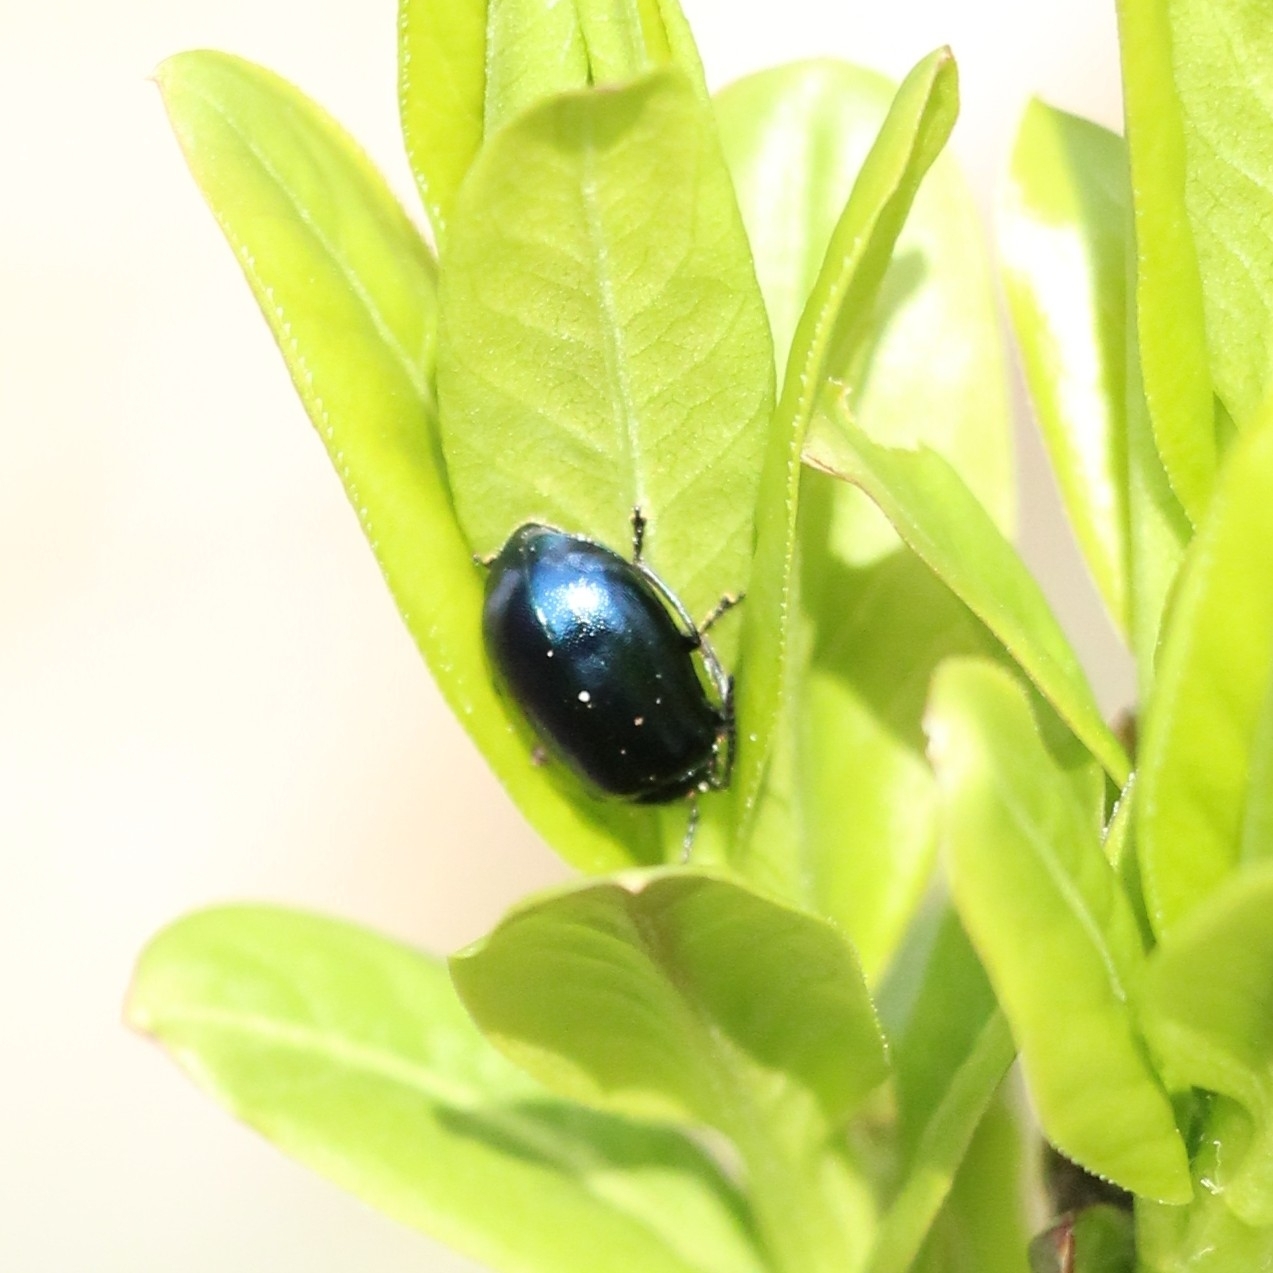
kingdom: Animalia
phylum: Arthropoda
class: Insecta
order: Coleoptera
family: Chrysomelidae
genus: Agelastica
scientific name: Agelastica alni
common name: Alder leaf beetle
